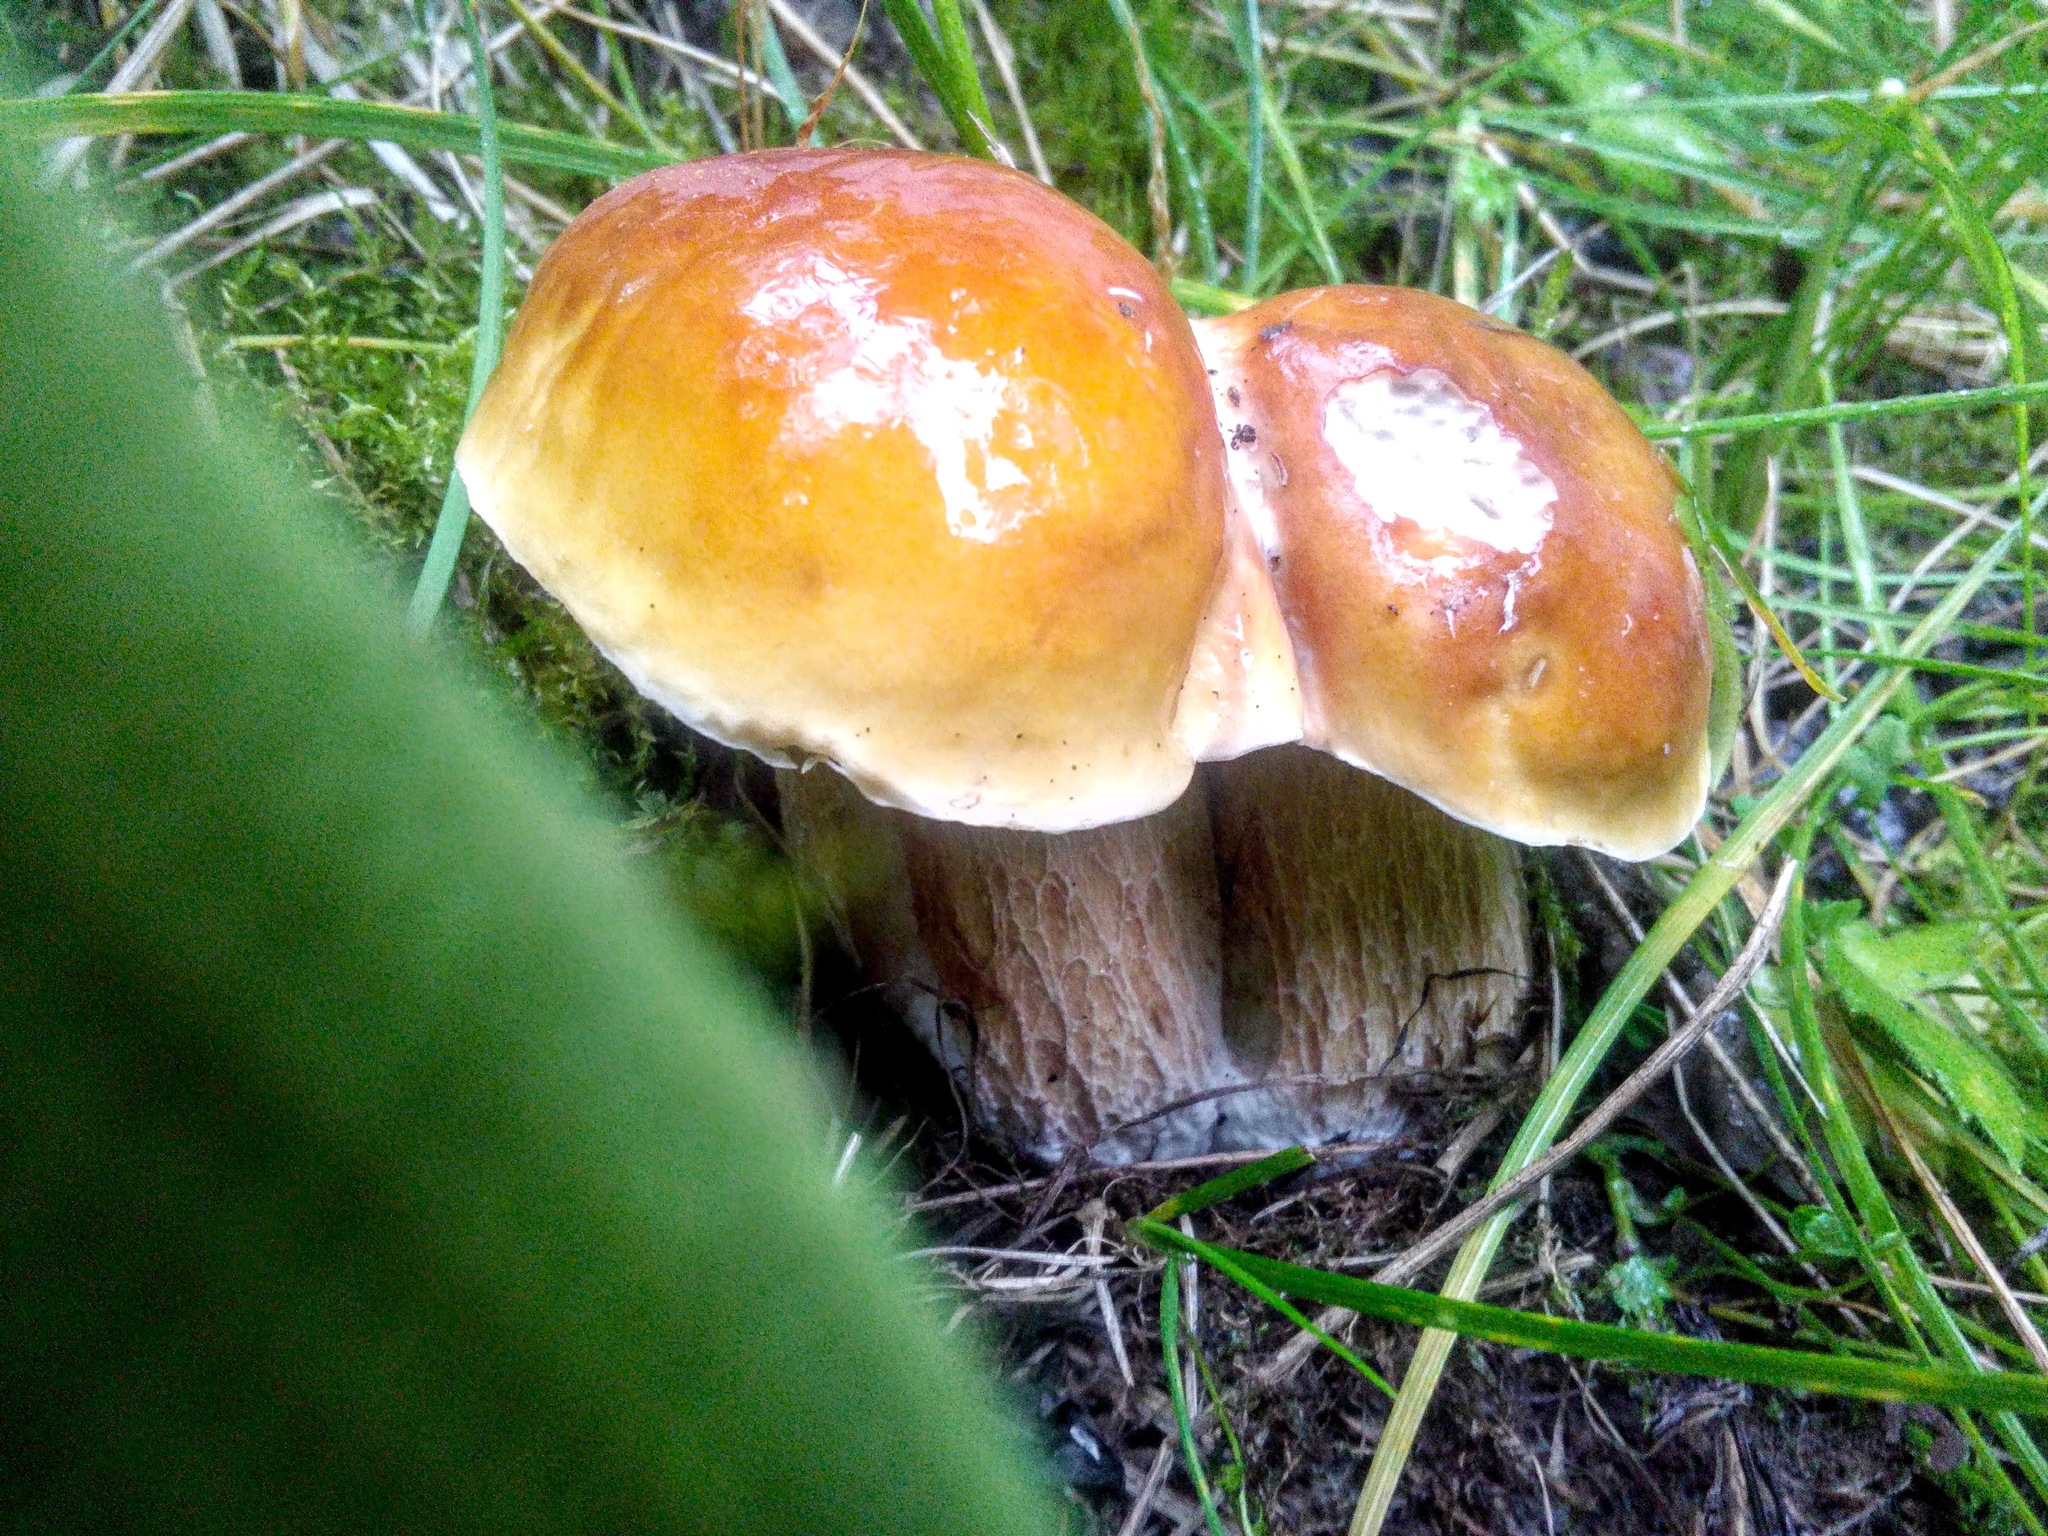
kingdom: Fungi
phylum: Basidiomycota
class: Agaricomycetes
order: Boletales
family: Boletaceae
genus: Boletus
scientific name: Boletus edulis
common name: Cep
